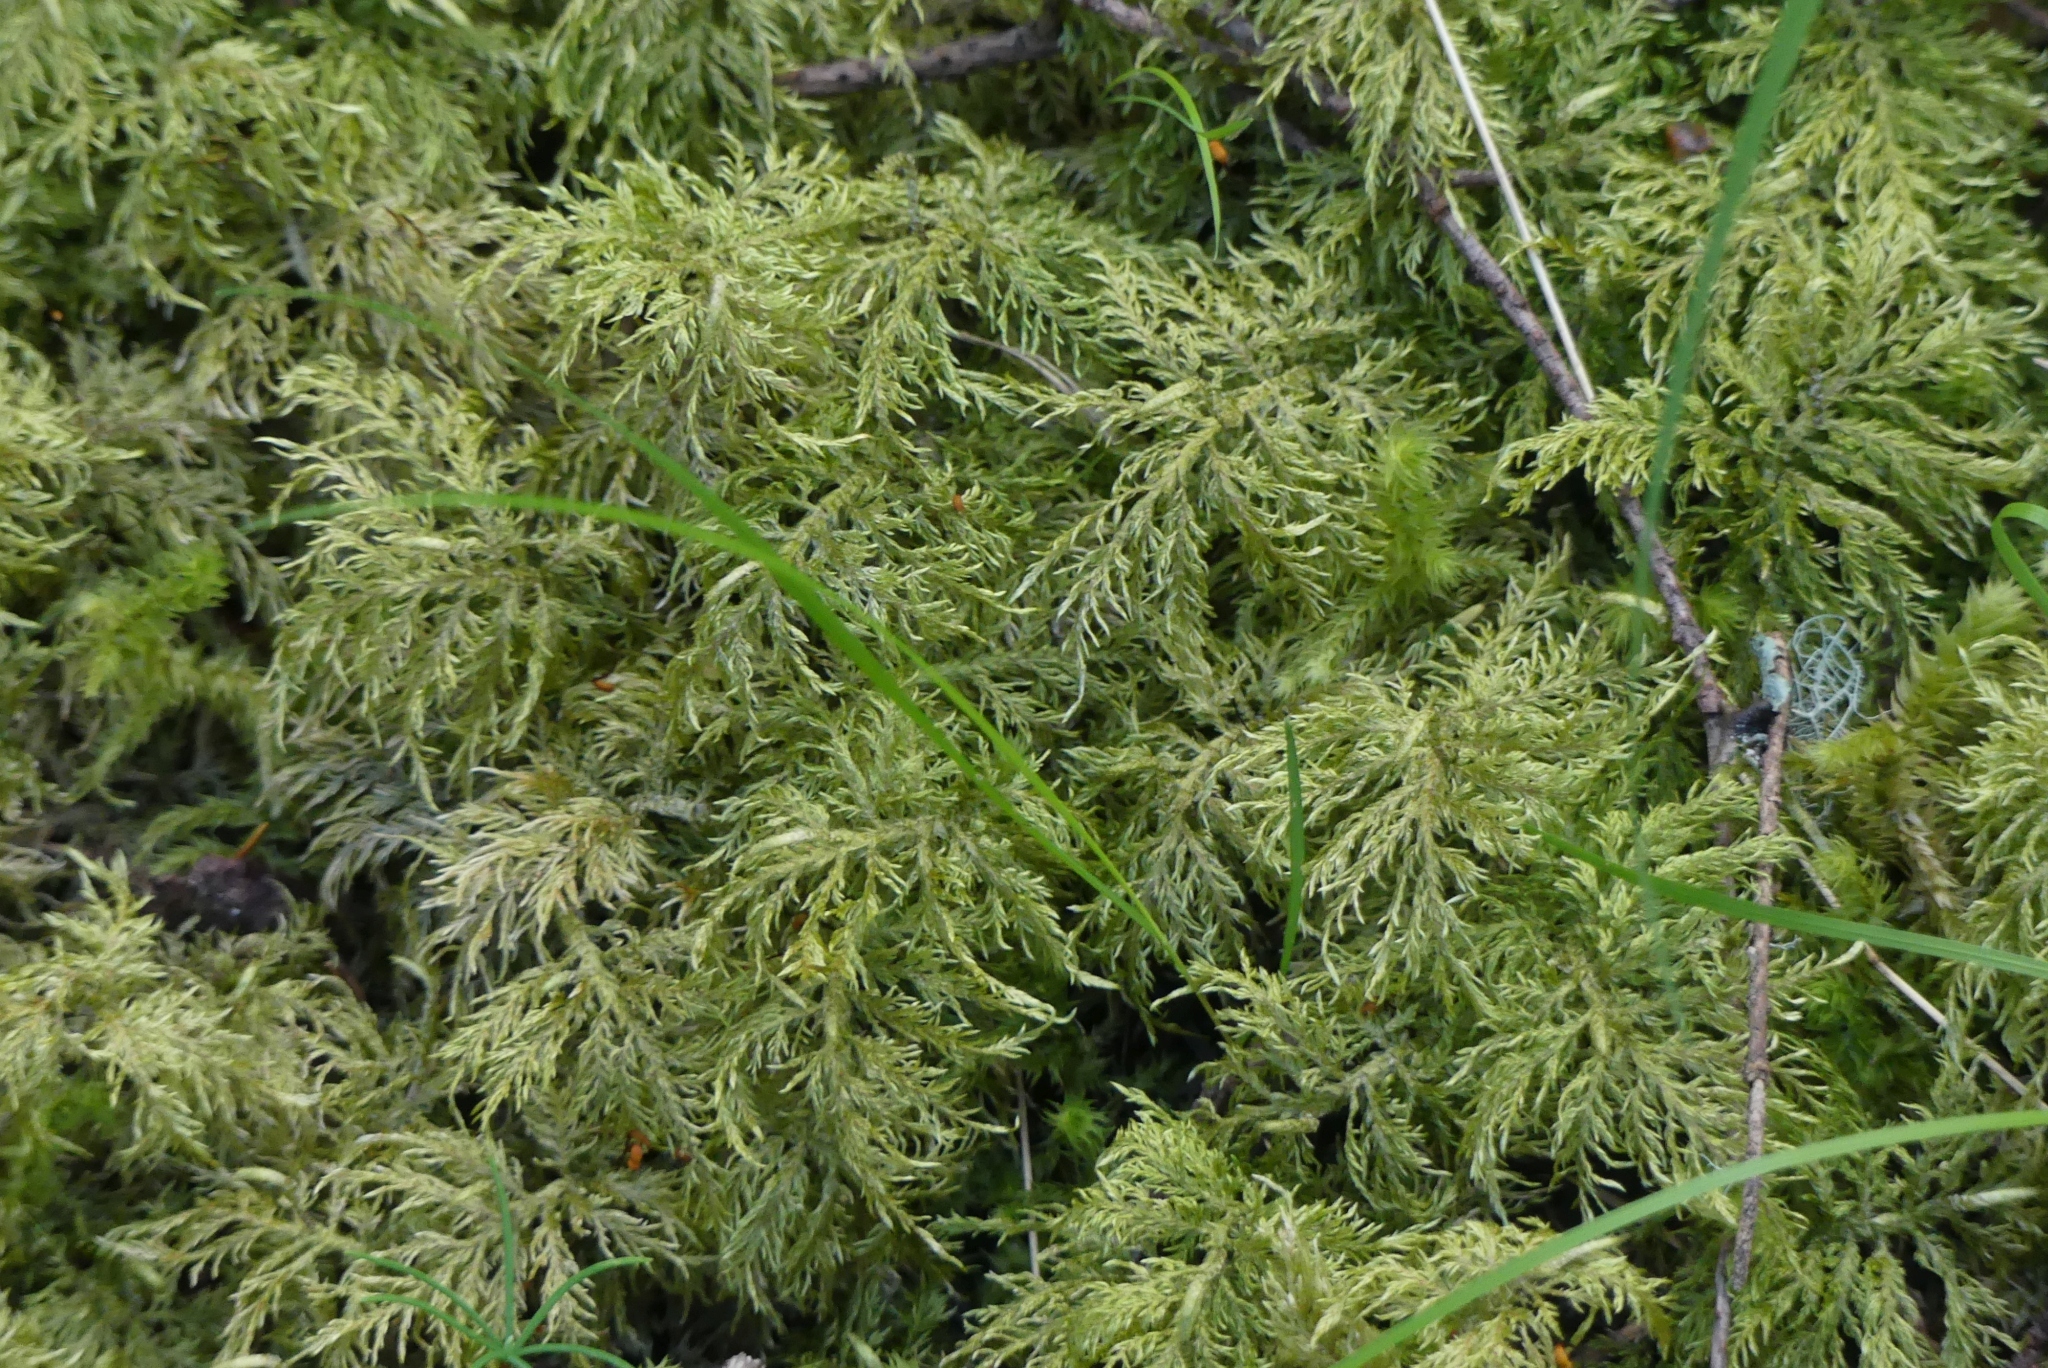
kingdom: Plantae
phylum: Bryophyta
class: Bryopsida
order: Hypnales
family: Hylocomiaceae
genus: Hylocomium
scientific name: Hylocomium splendens
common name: Stairstep moss
